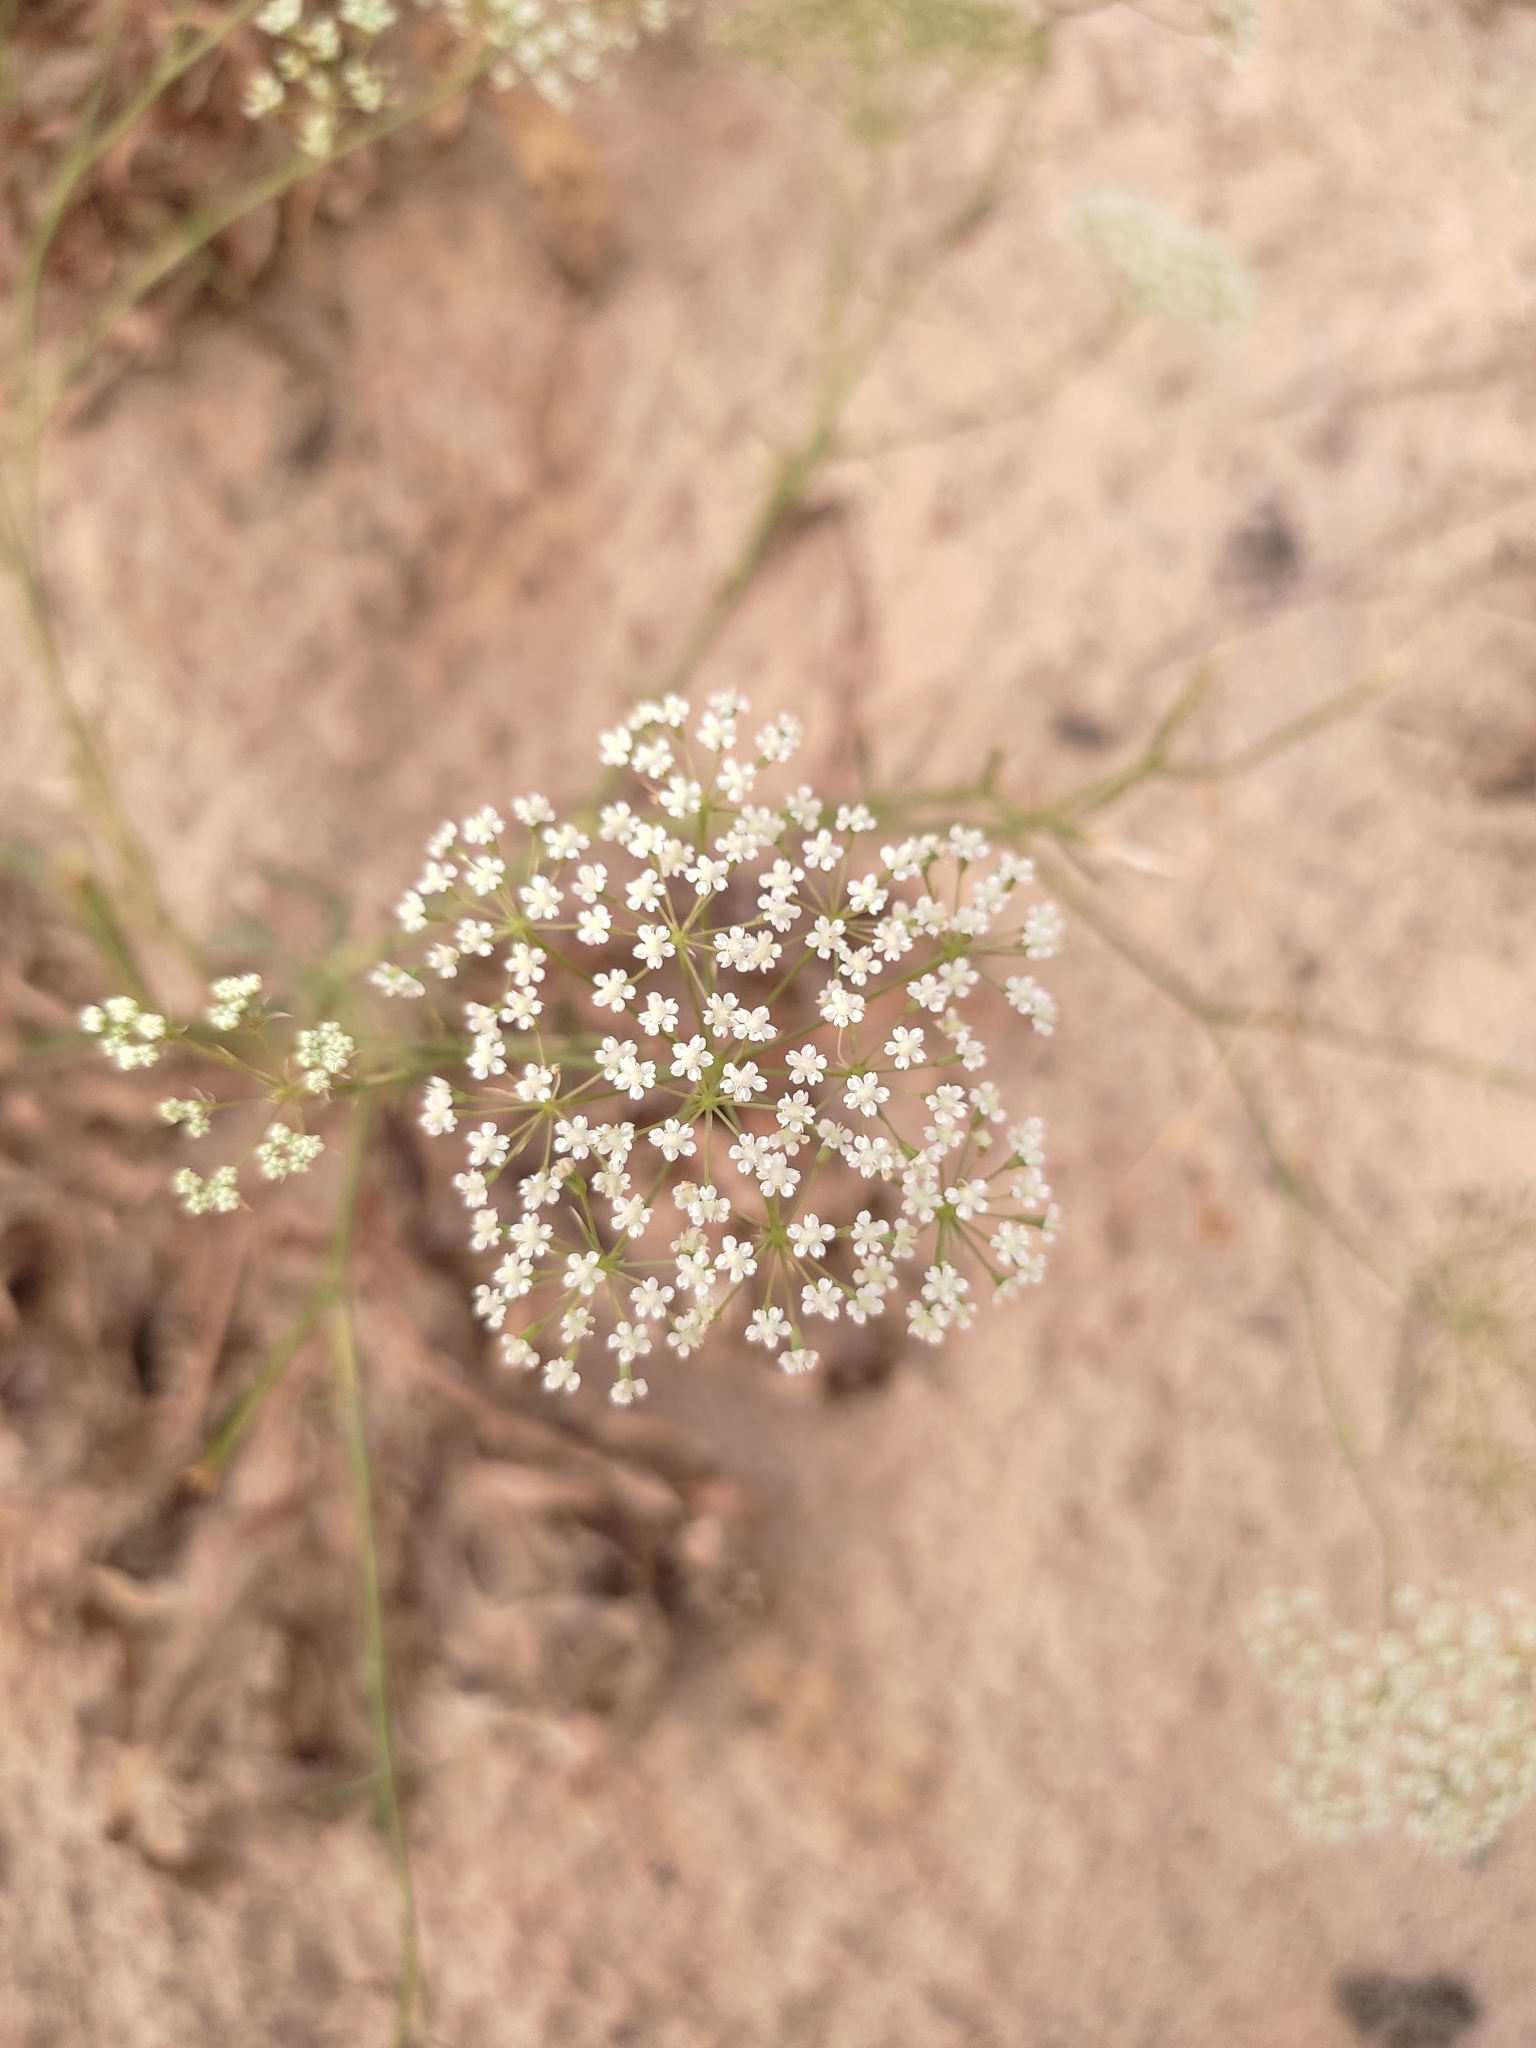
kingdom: Plantae
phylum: Tracheophyta
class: Magnoliopsida
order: Apiales
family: Apiaceae
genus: Falcaria
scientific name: Falcaria vulgaris
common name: Longleaf
